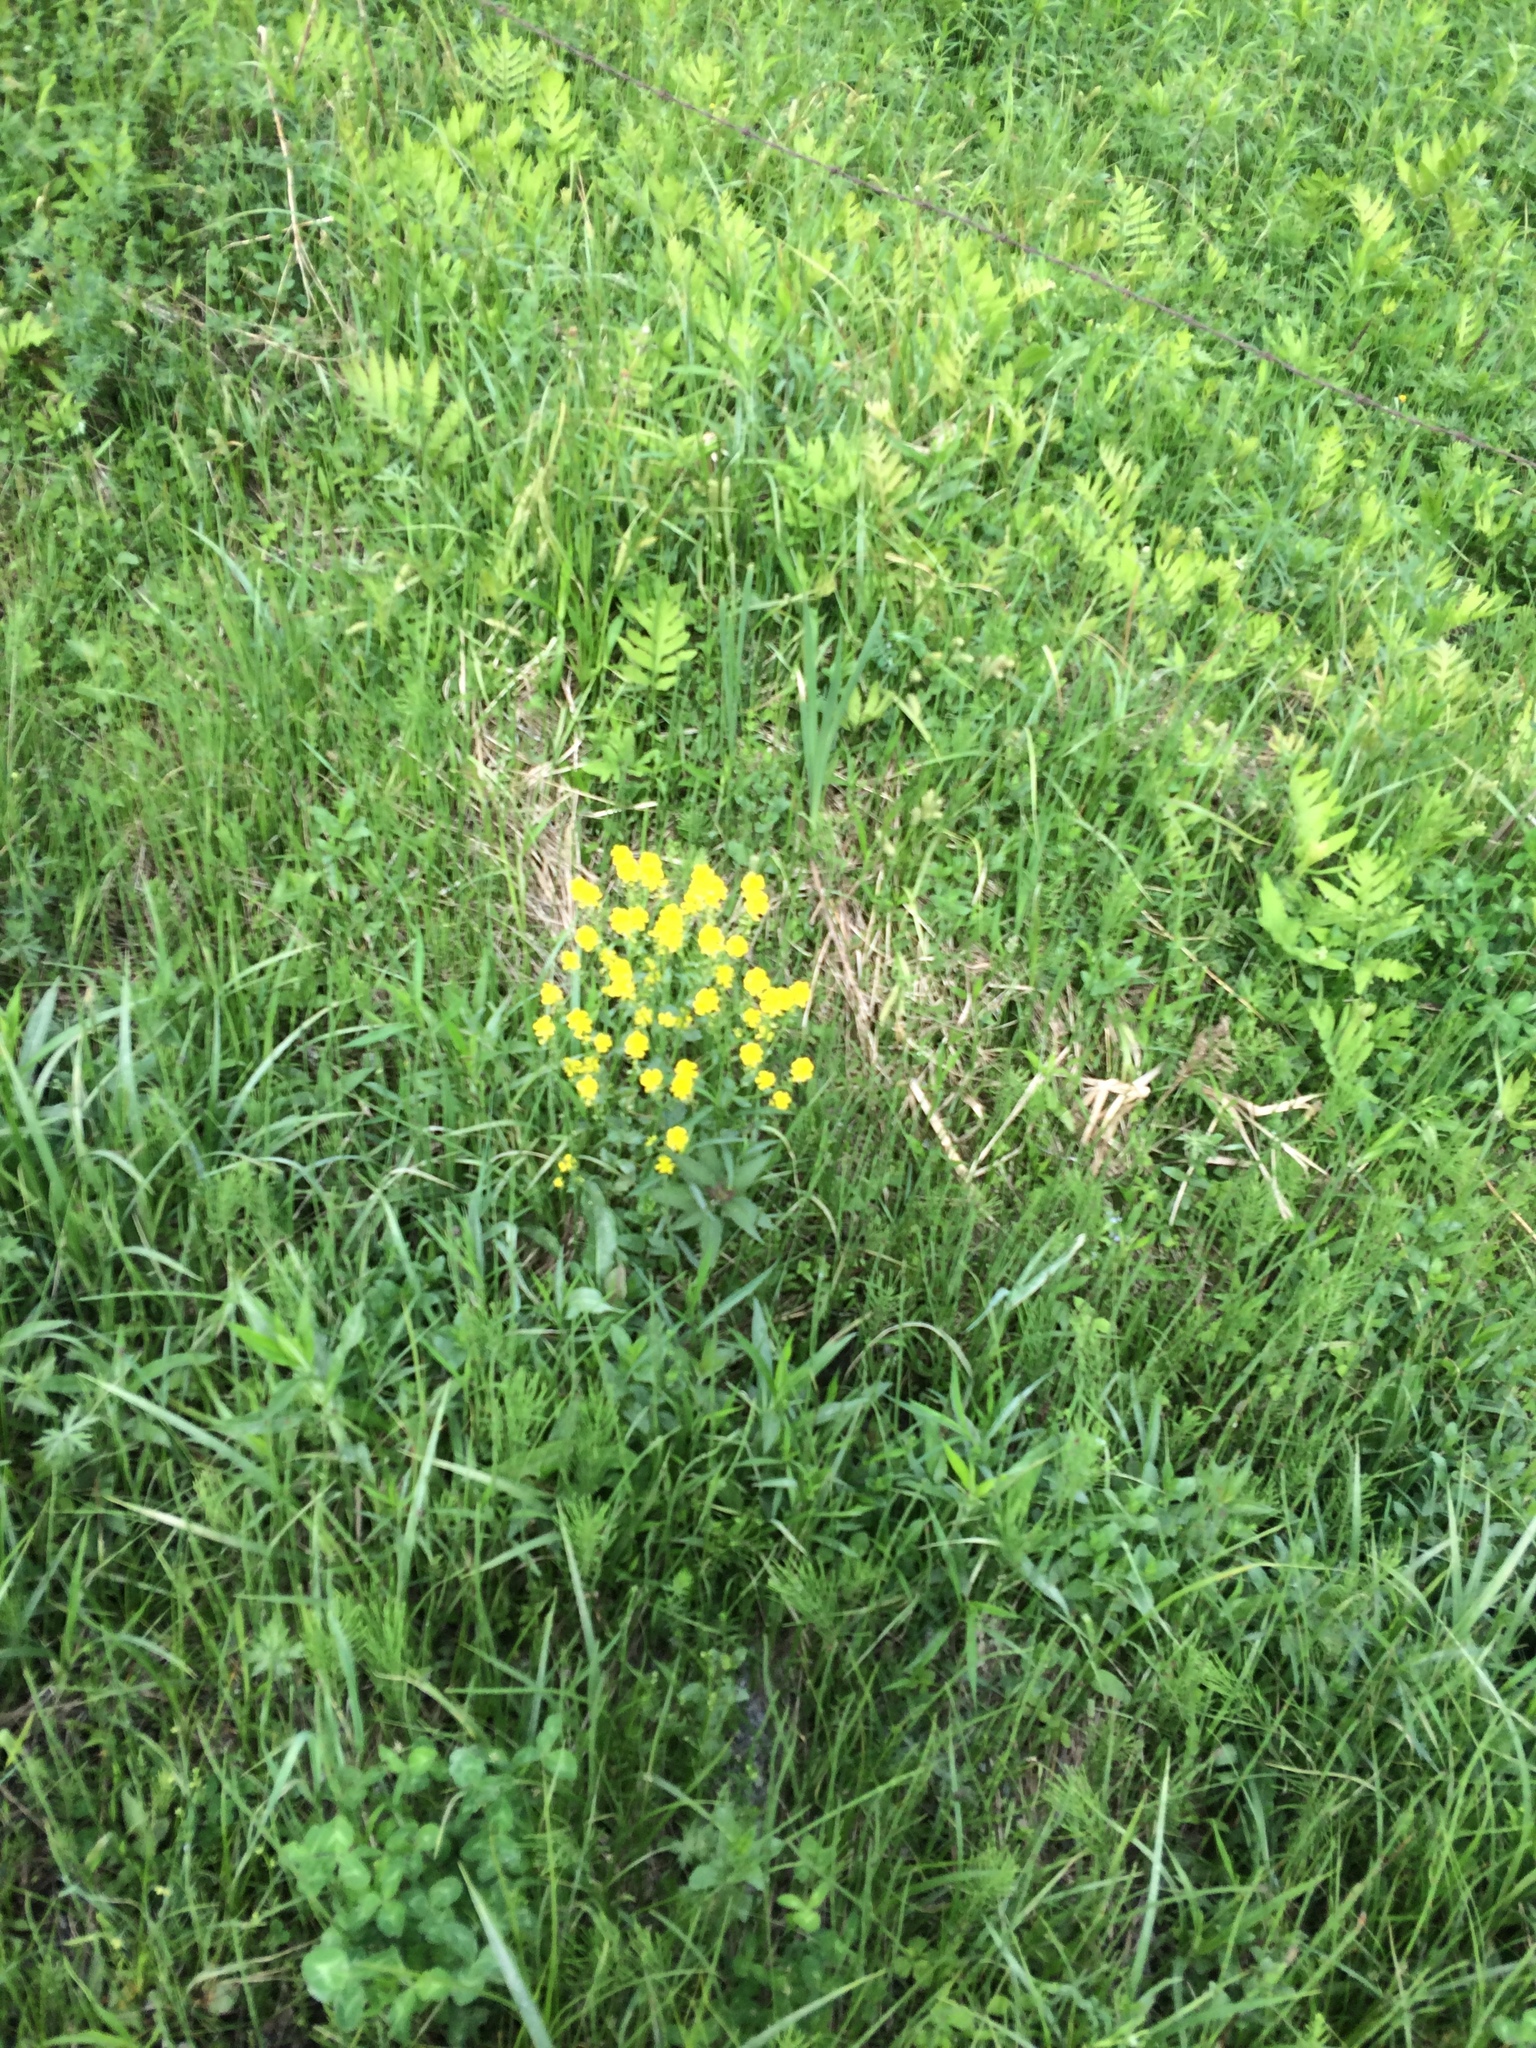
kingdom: Plantae
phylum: Tracheophyta
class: Magnoliopsida
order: Brassicales
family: Brassicaceae
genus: Barbarea
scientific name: Barbarea vulgaris
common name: Cressy-greens
